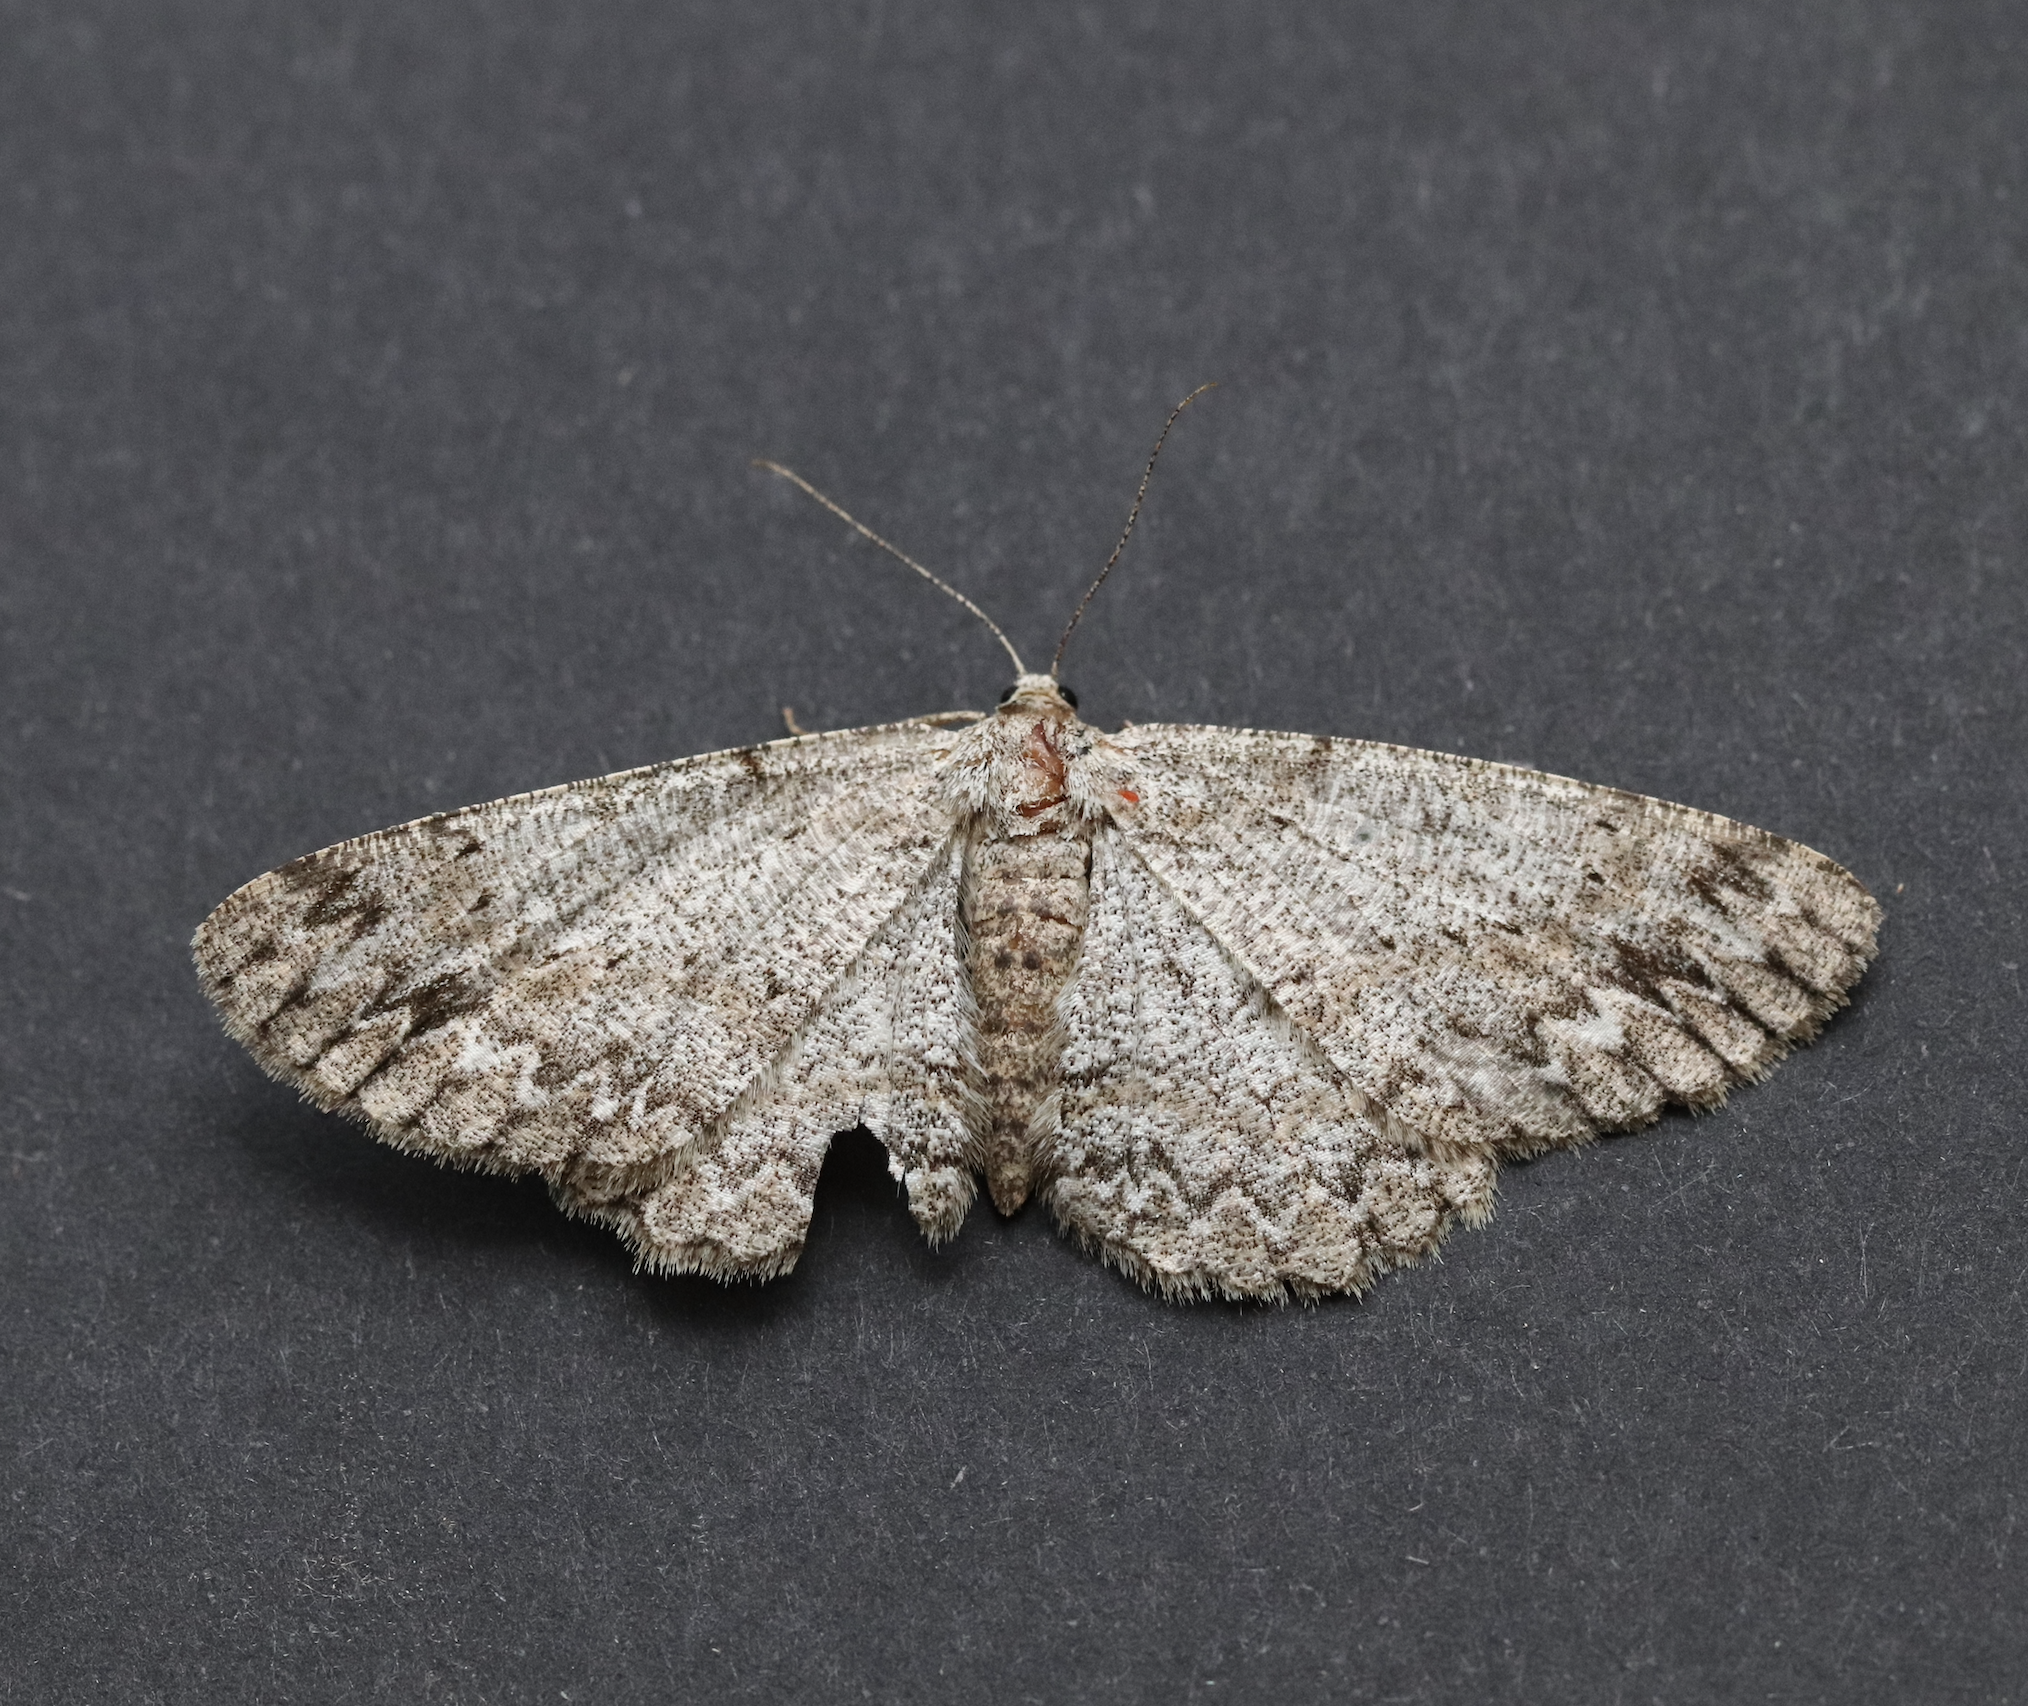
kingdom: Animalia
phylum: Arthropoda
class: Insecta
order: Lepidoptera
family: Geometridae
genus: Hypomecis
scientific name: Hypomecis punctinalis
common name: Pale oak beauty
